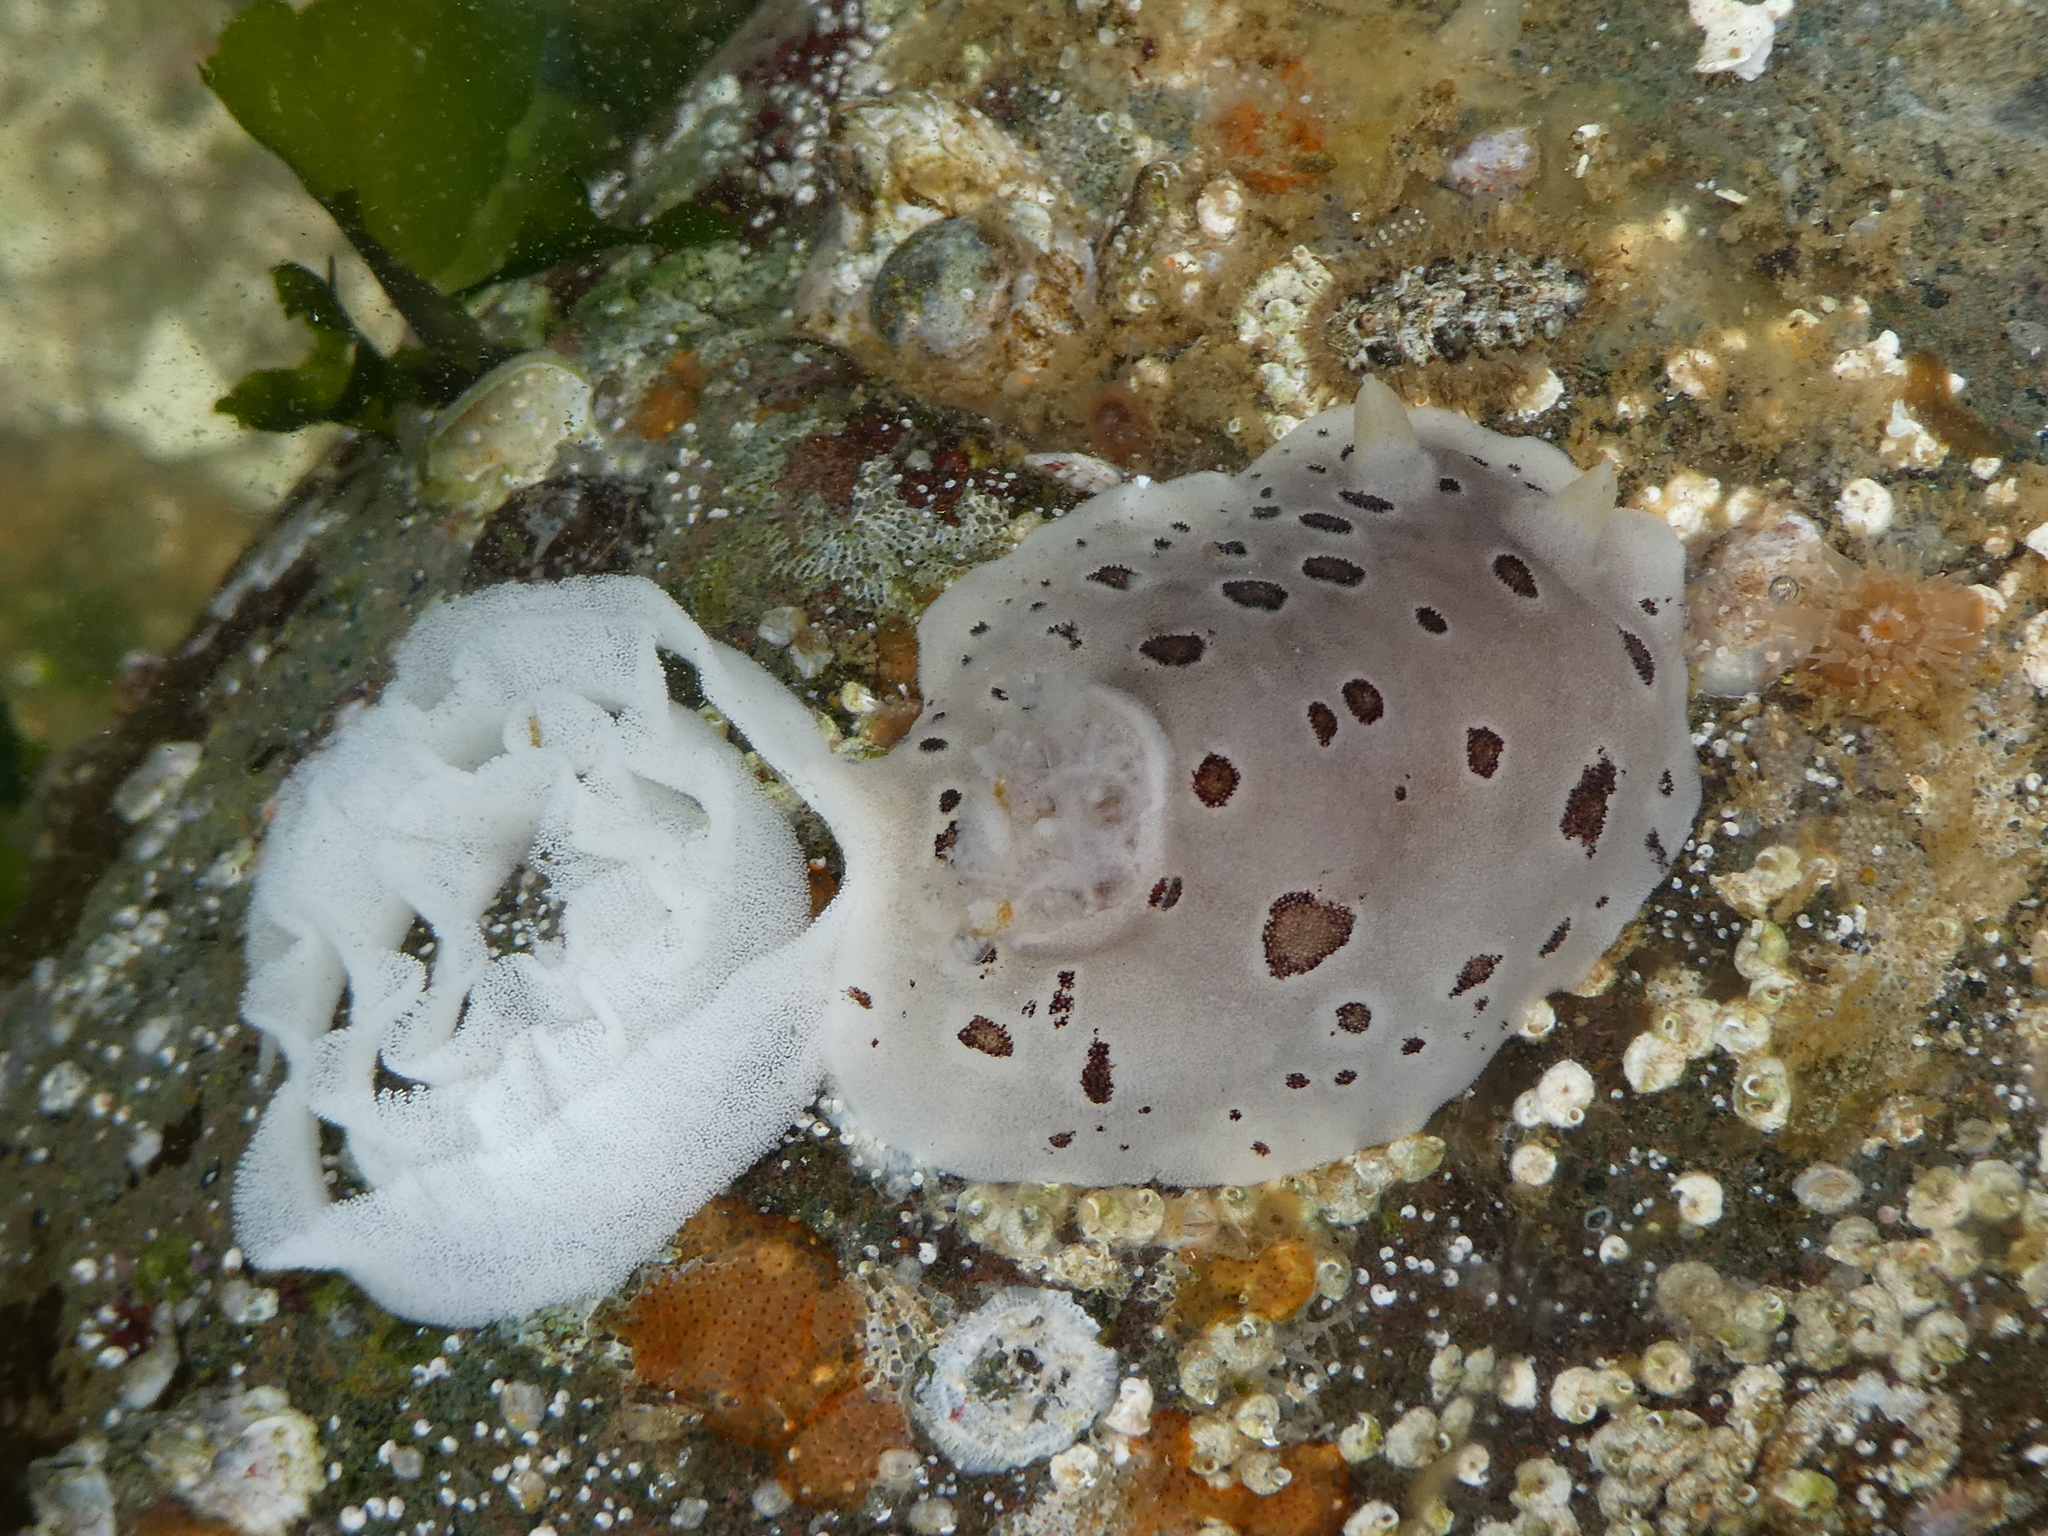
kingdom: Animalia
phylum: Mollusca
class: Gastropoda
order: Nudibranchia
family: Discodorididae
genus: Diaulula
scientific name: Diaulula odonoghuei
